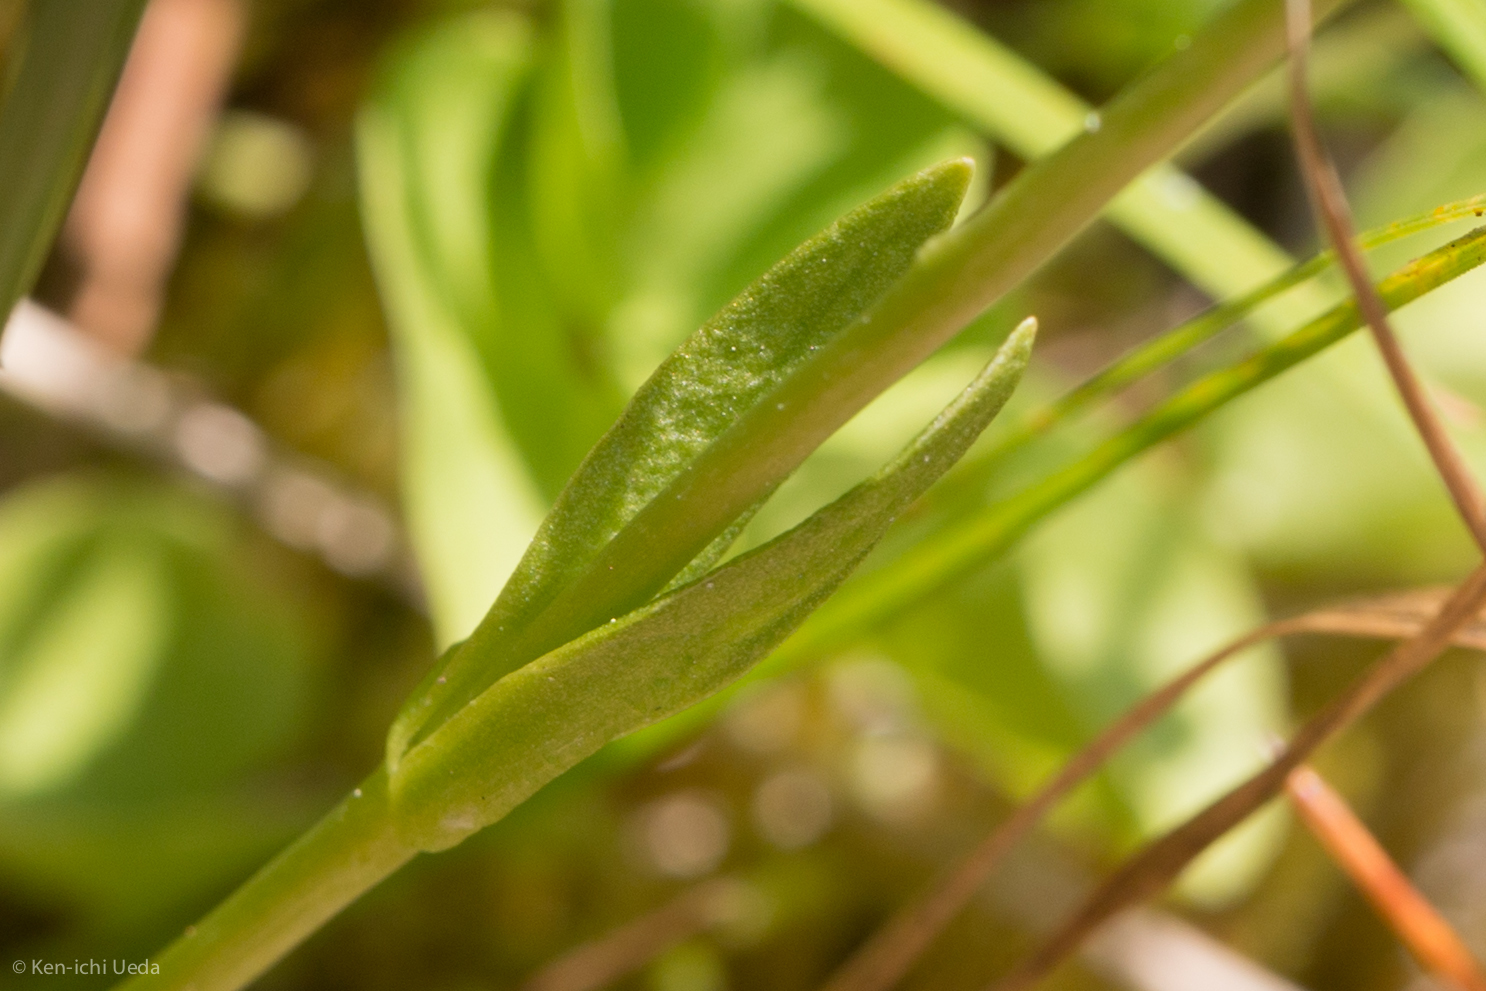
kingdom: Plantae
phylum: Tracheophyta
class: Magnoliopsida
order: Gentianales
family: Gentianaceae
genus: Gentianopsis
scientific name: Gentianopsis simplex
